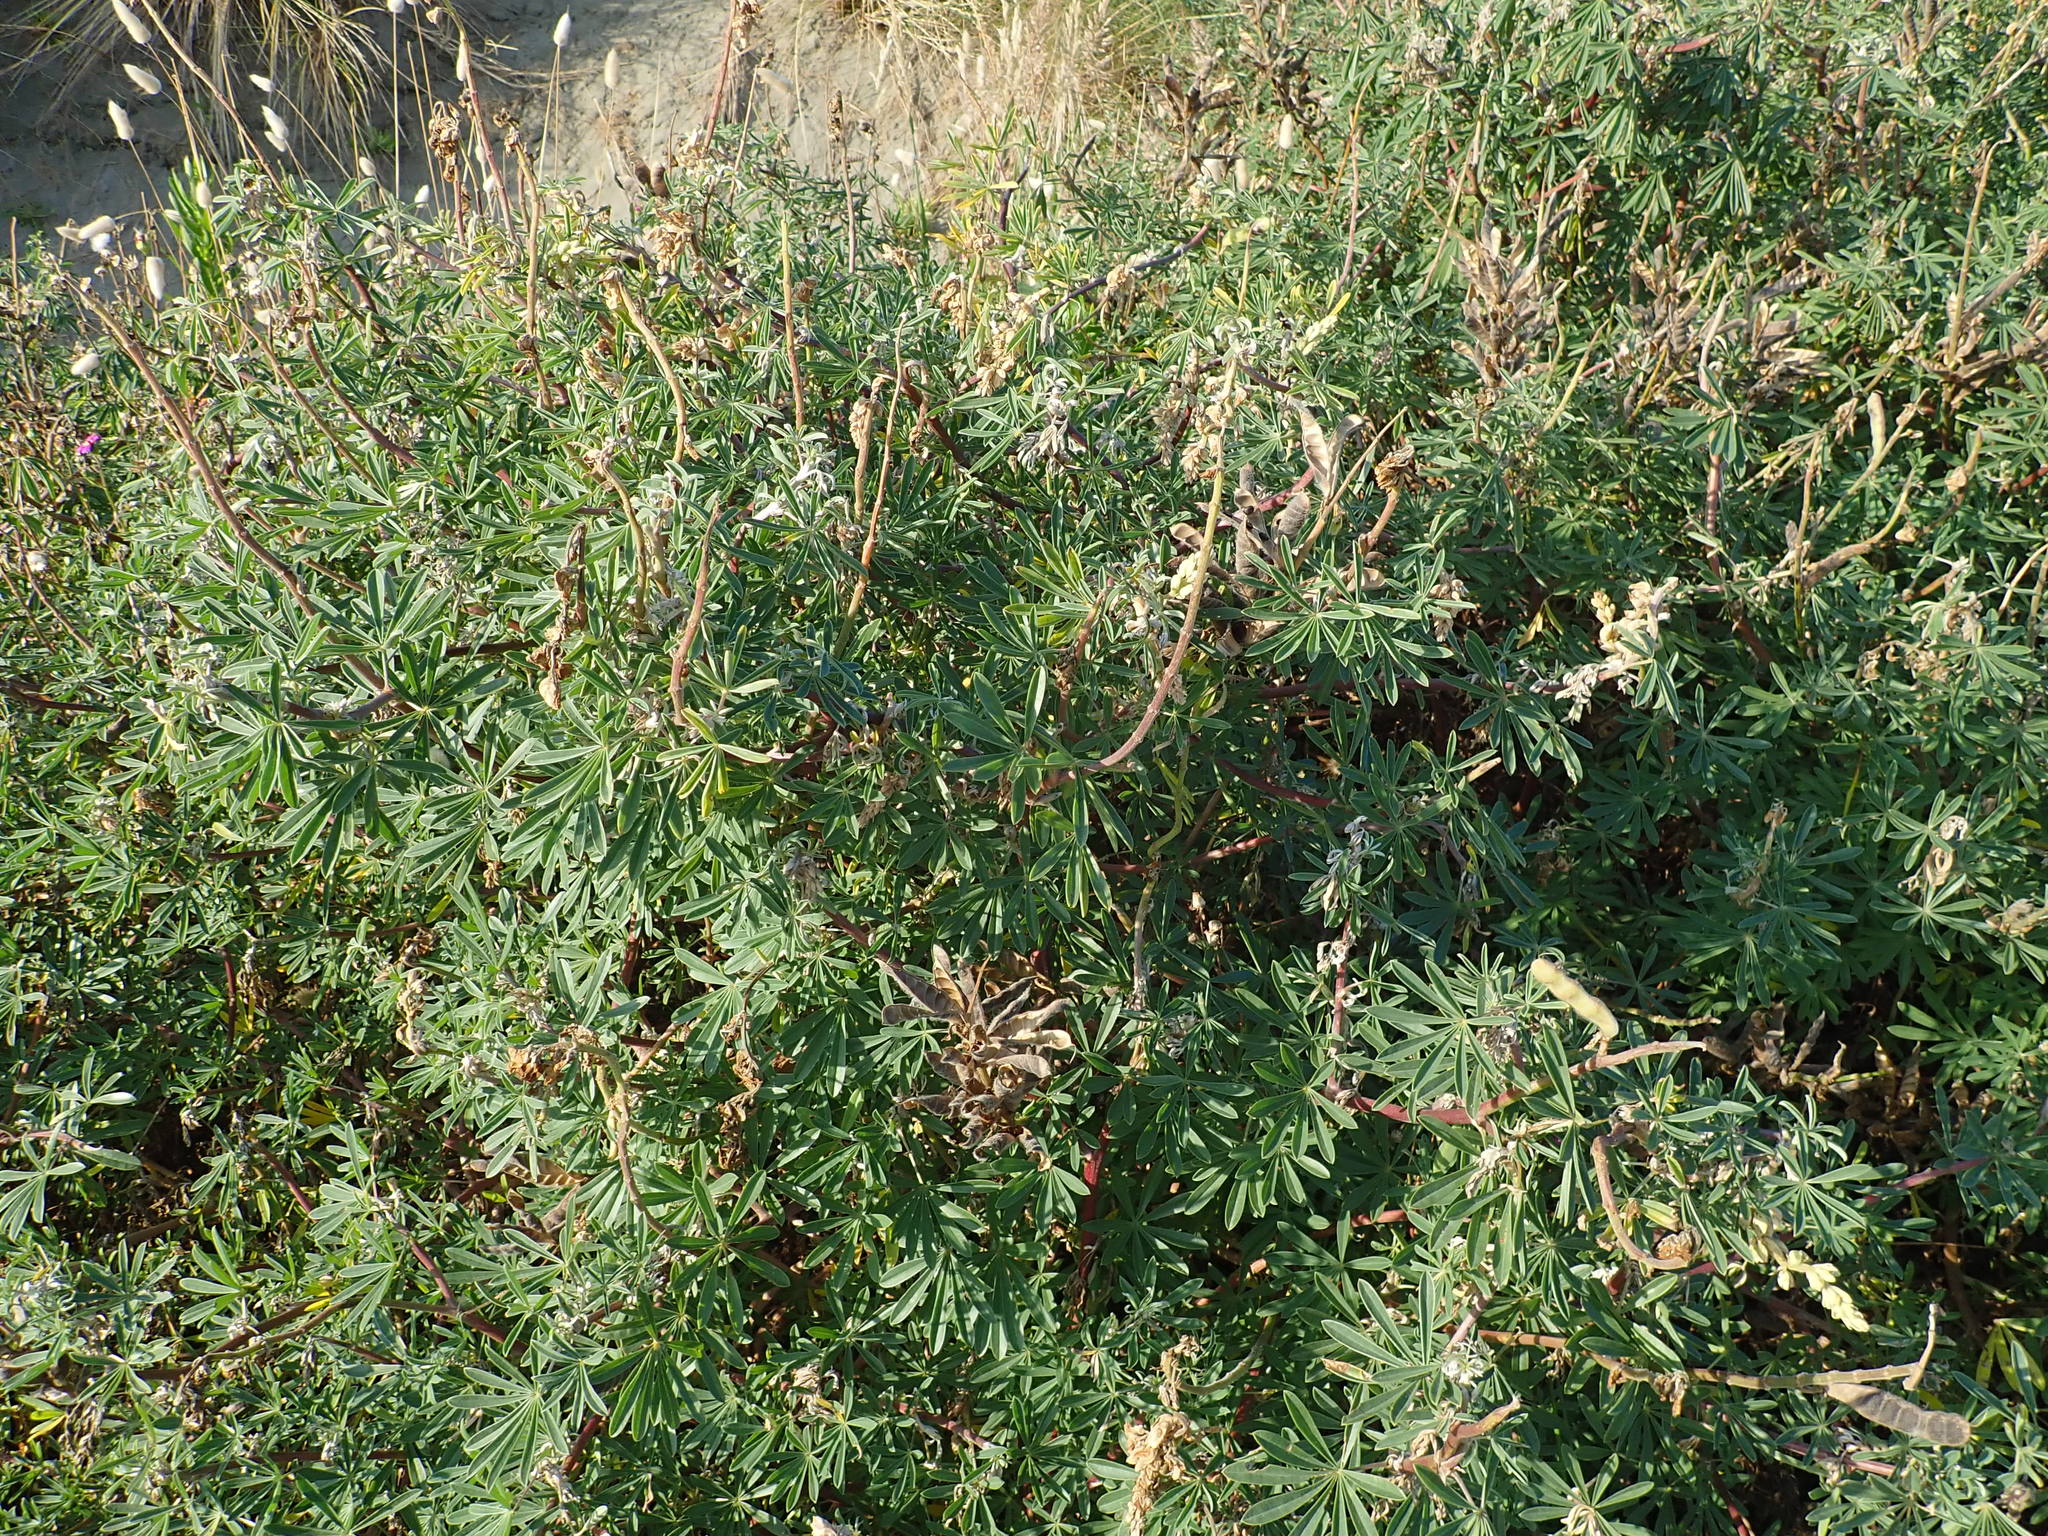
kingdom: Plantae
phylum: Tracheophyta
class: Magnoliopsida
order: Fabales
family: Fabaceae
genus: Lupinus
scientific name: Lupinus arboreus
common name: Yellow bush lupine
